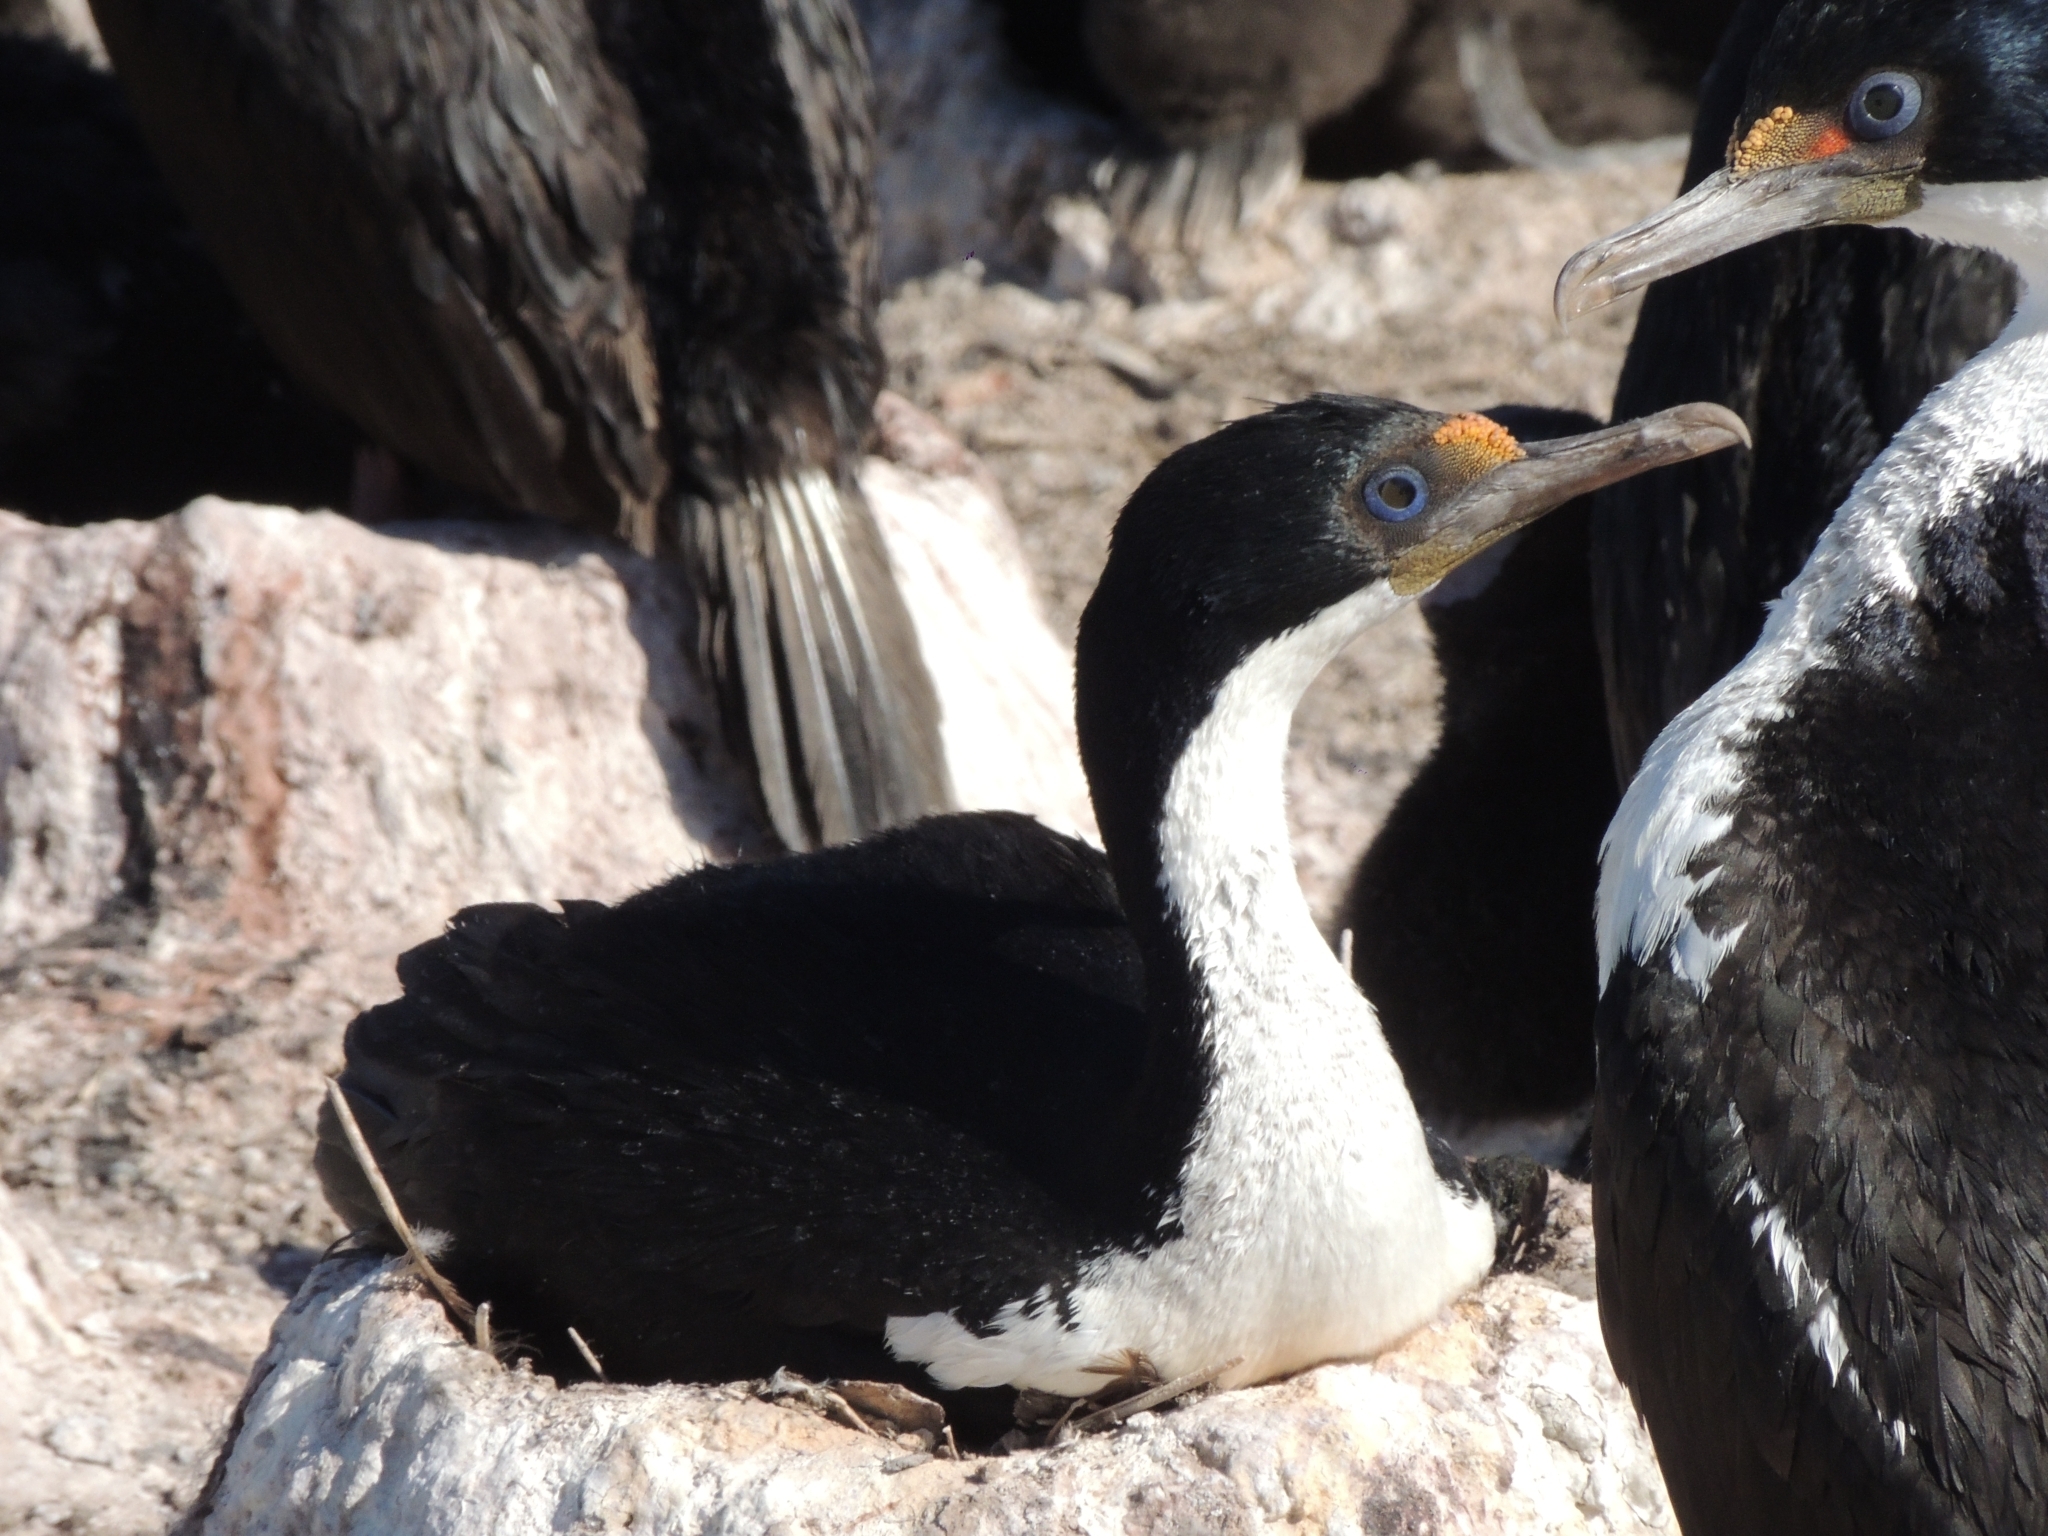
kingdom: Animalia
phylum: Chordata
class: Aves
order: Suliformes
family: Phalacrocoracidae
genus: Leucocarbo
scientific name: Leucocarbo atriceps
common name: Imperial shag
